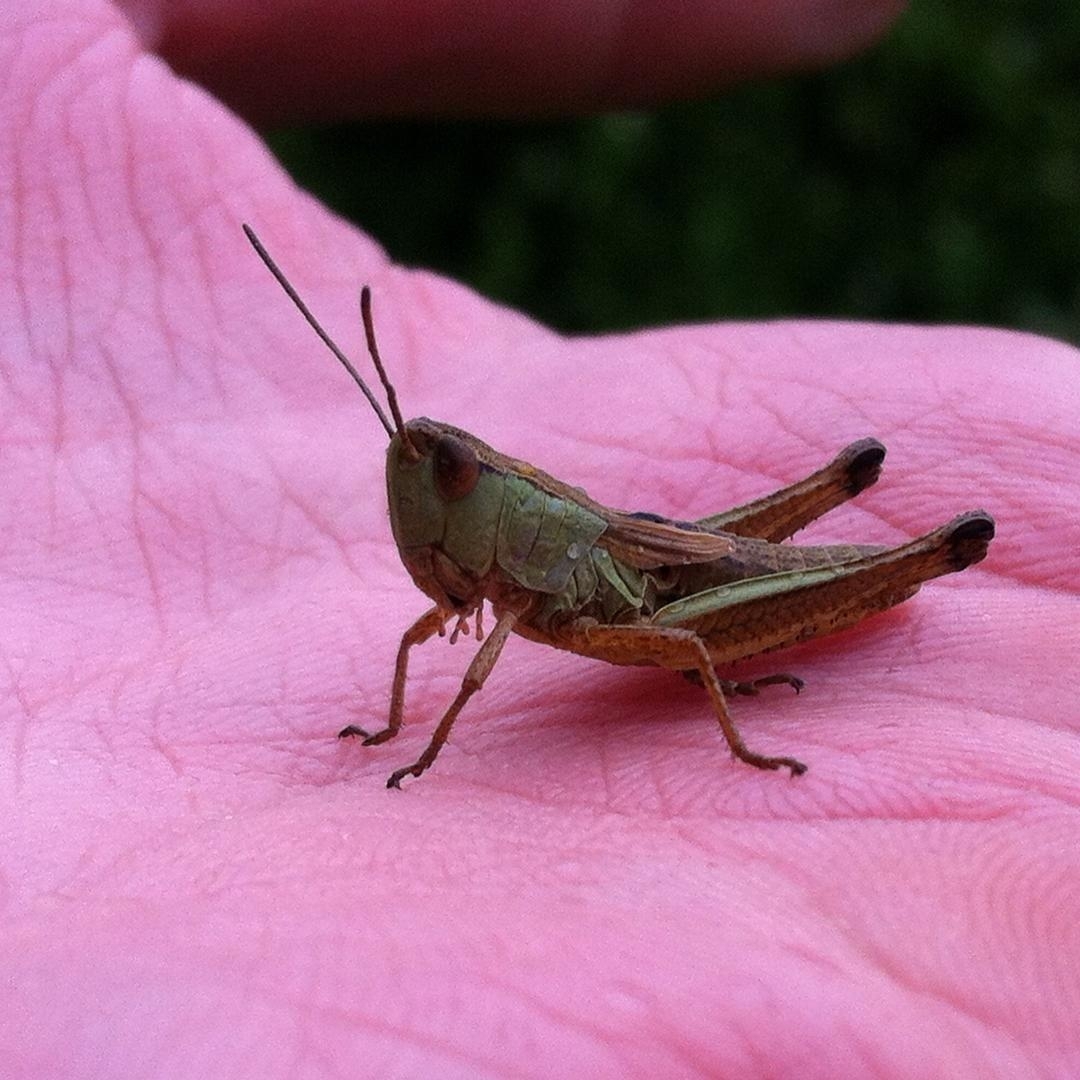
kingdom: Animalia
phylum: Arthropoda
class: Insecta
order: Orthoptera
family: Acrididae
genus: Pseudochorthippus
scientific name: Pseudochorthippus parallelus
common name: Meadow grasshopper
